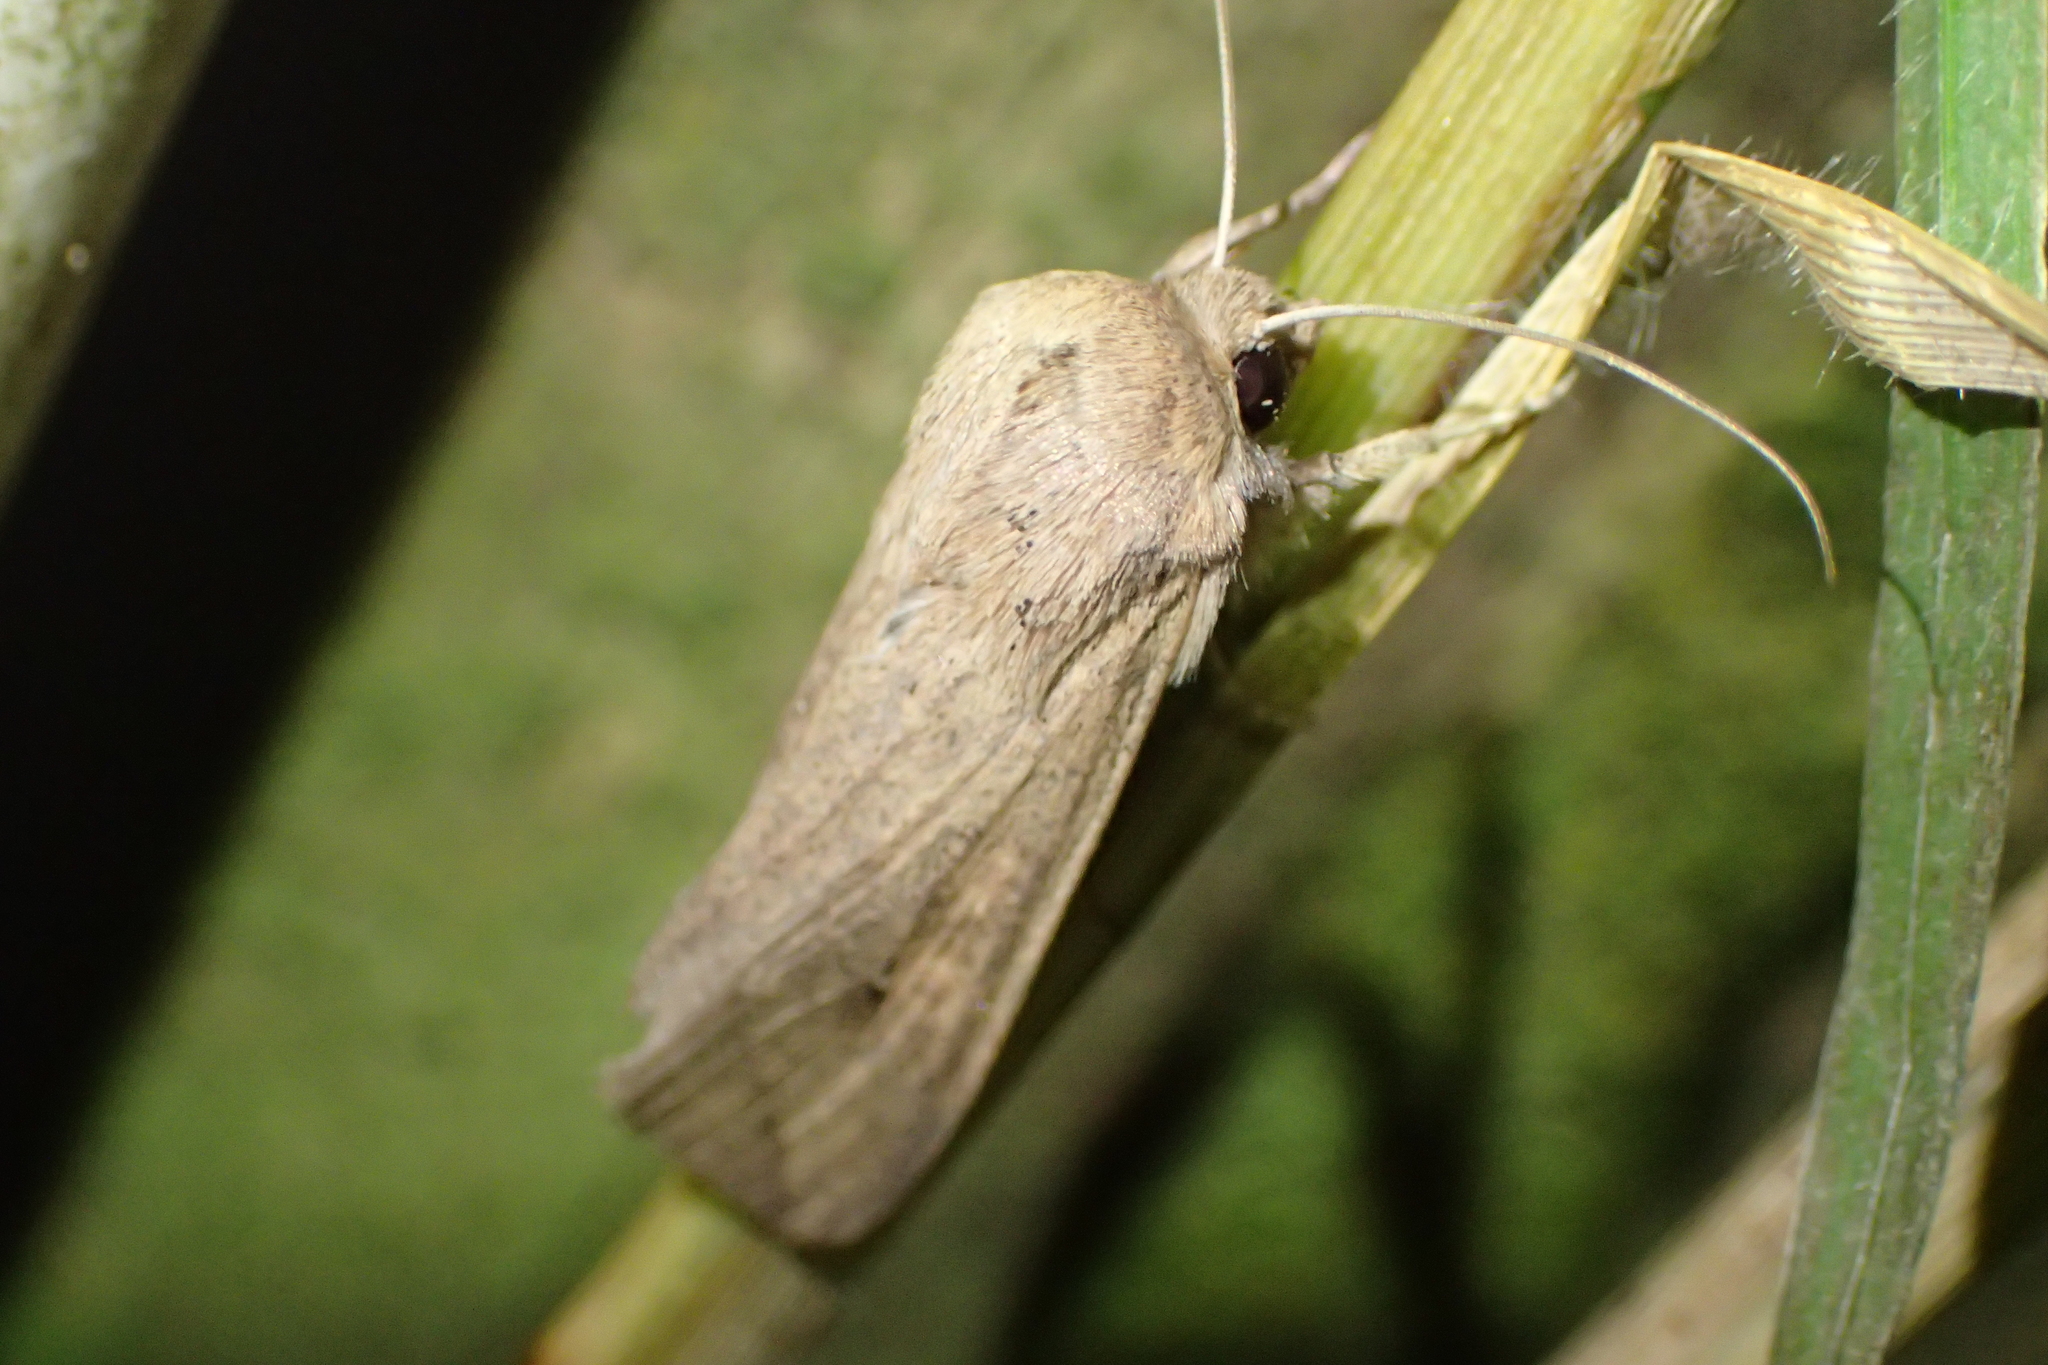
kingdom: Animalia
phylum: Arthropoda
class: Insecta
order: Lepidoptera
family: Noctuidae
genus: Mythimna
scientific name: Mythimna separata
